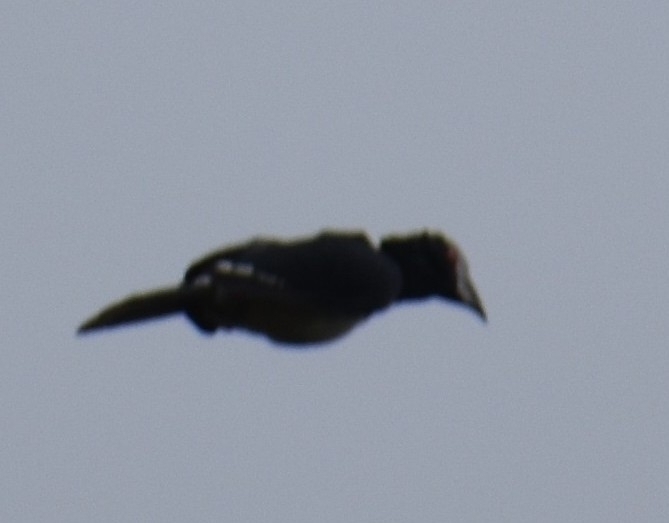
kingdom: Animalia
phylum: Chordata
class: Aves
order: Bucerotiformes
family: Bucerotidae
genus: Bycanistes
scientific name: Bycanistes bucinator
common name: Trumpeter hornbill
